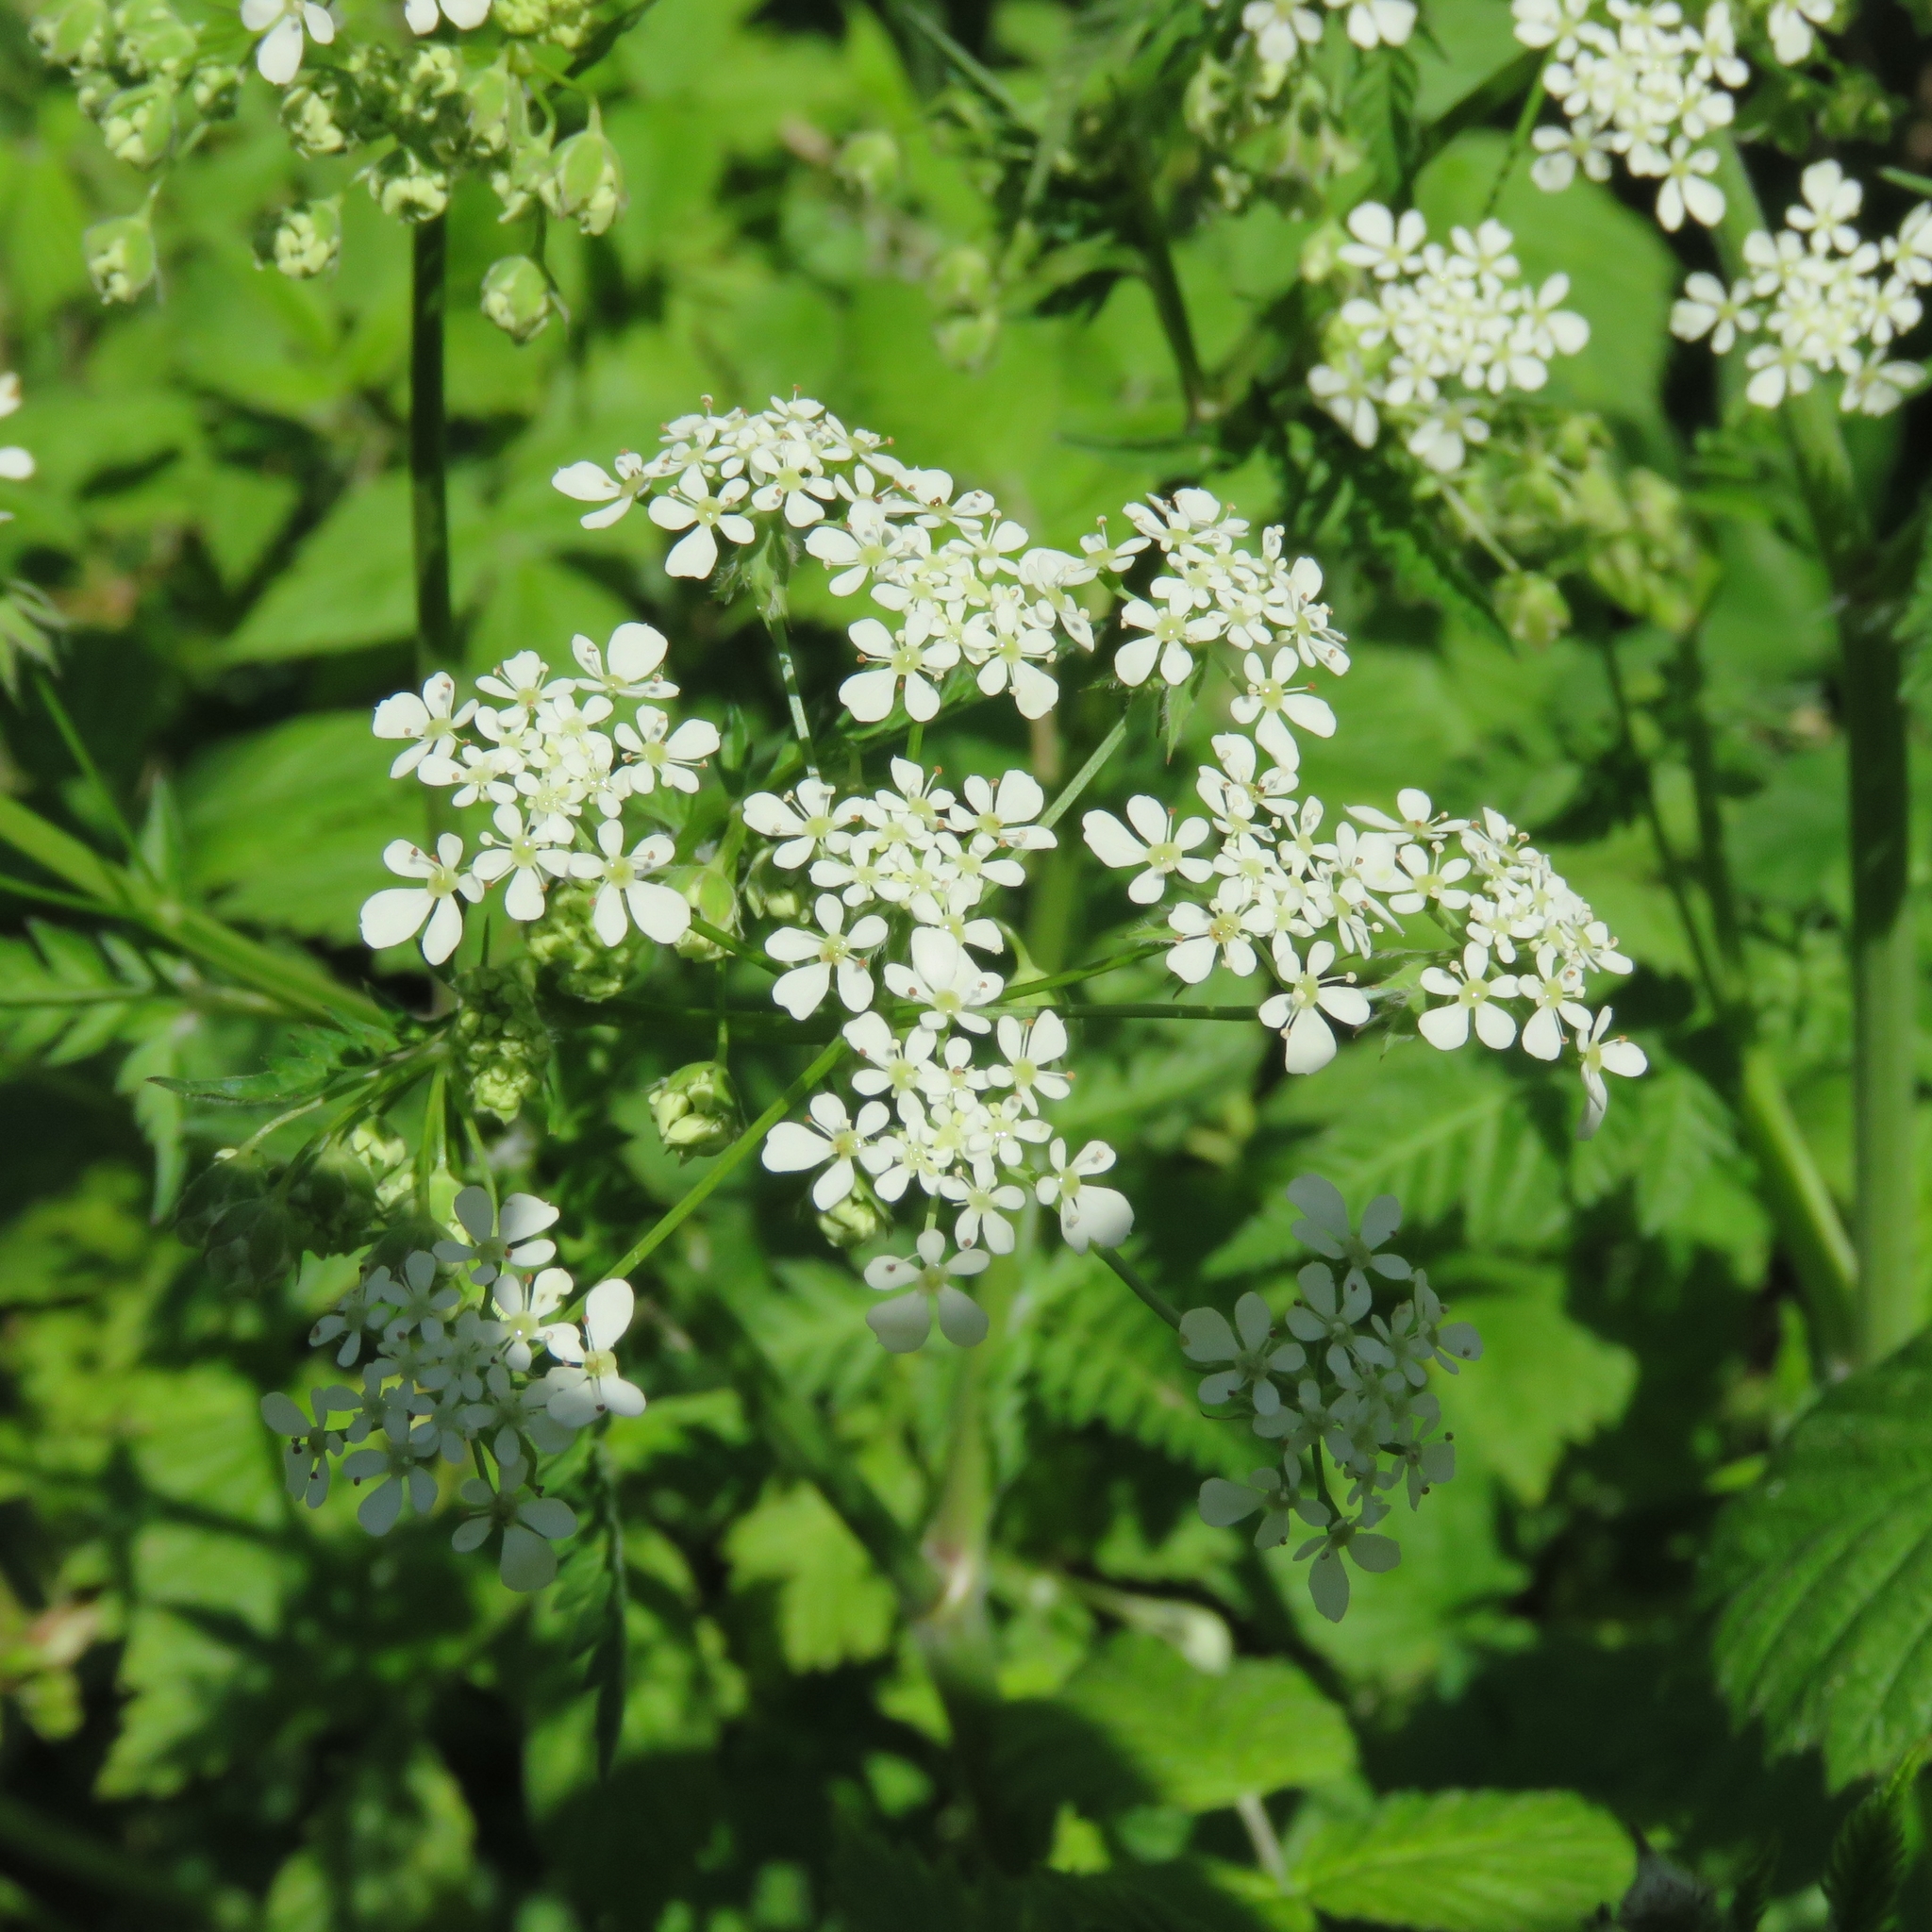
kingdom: Plantae
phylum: Tracheophyta
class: Magnoliopsida
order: Apiales
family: Apiaceae
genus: Anthriscus
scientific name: Anthriscus sylvestris
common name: Cow parsley
